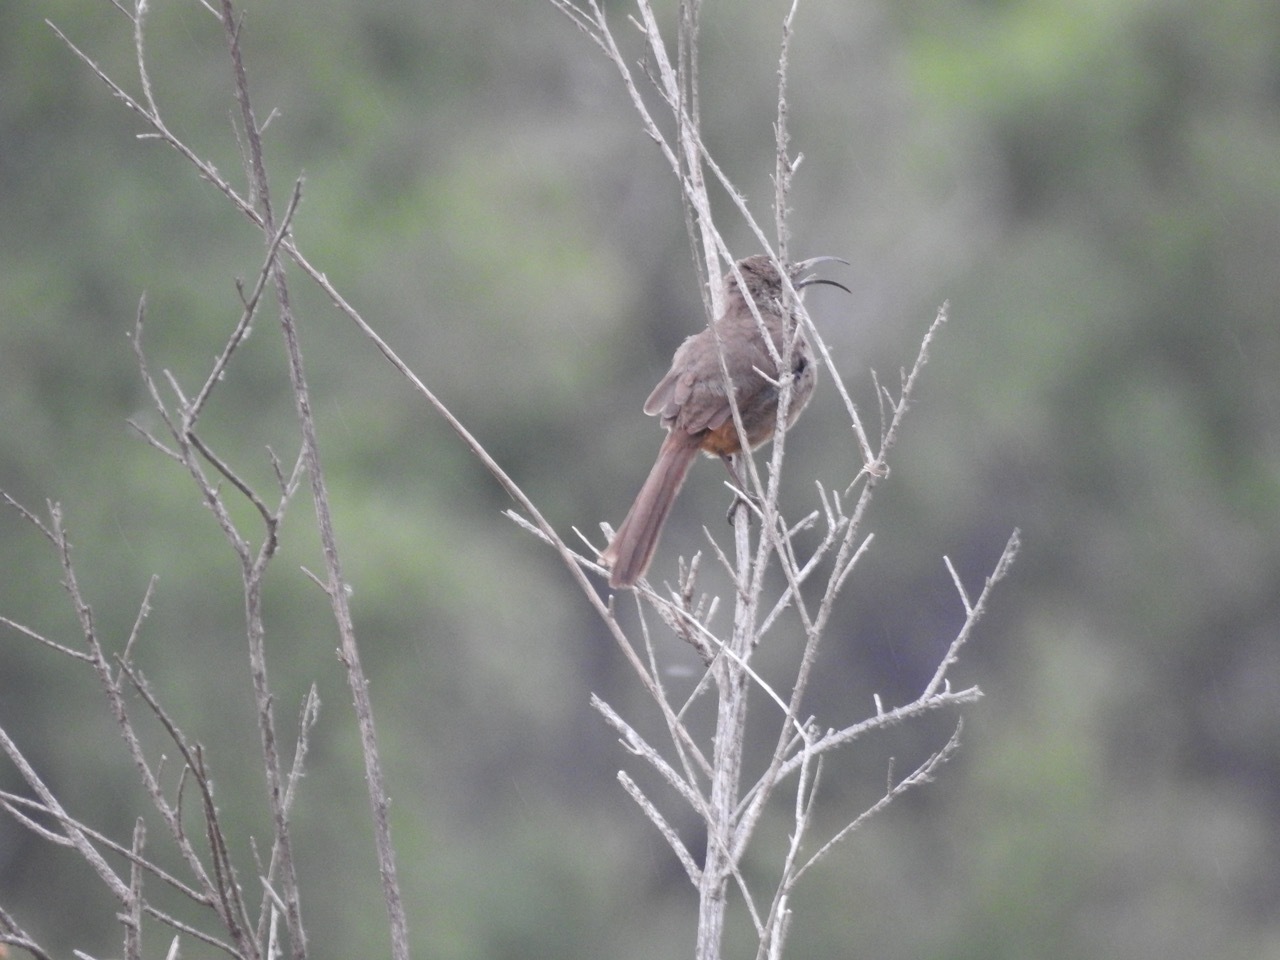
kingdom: Animalia
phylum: Chordata
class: Aves
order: Passeriformes
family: Mimidae
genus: Toxostoma
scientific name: Toxostoma redivivum
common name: California thrasher
